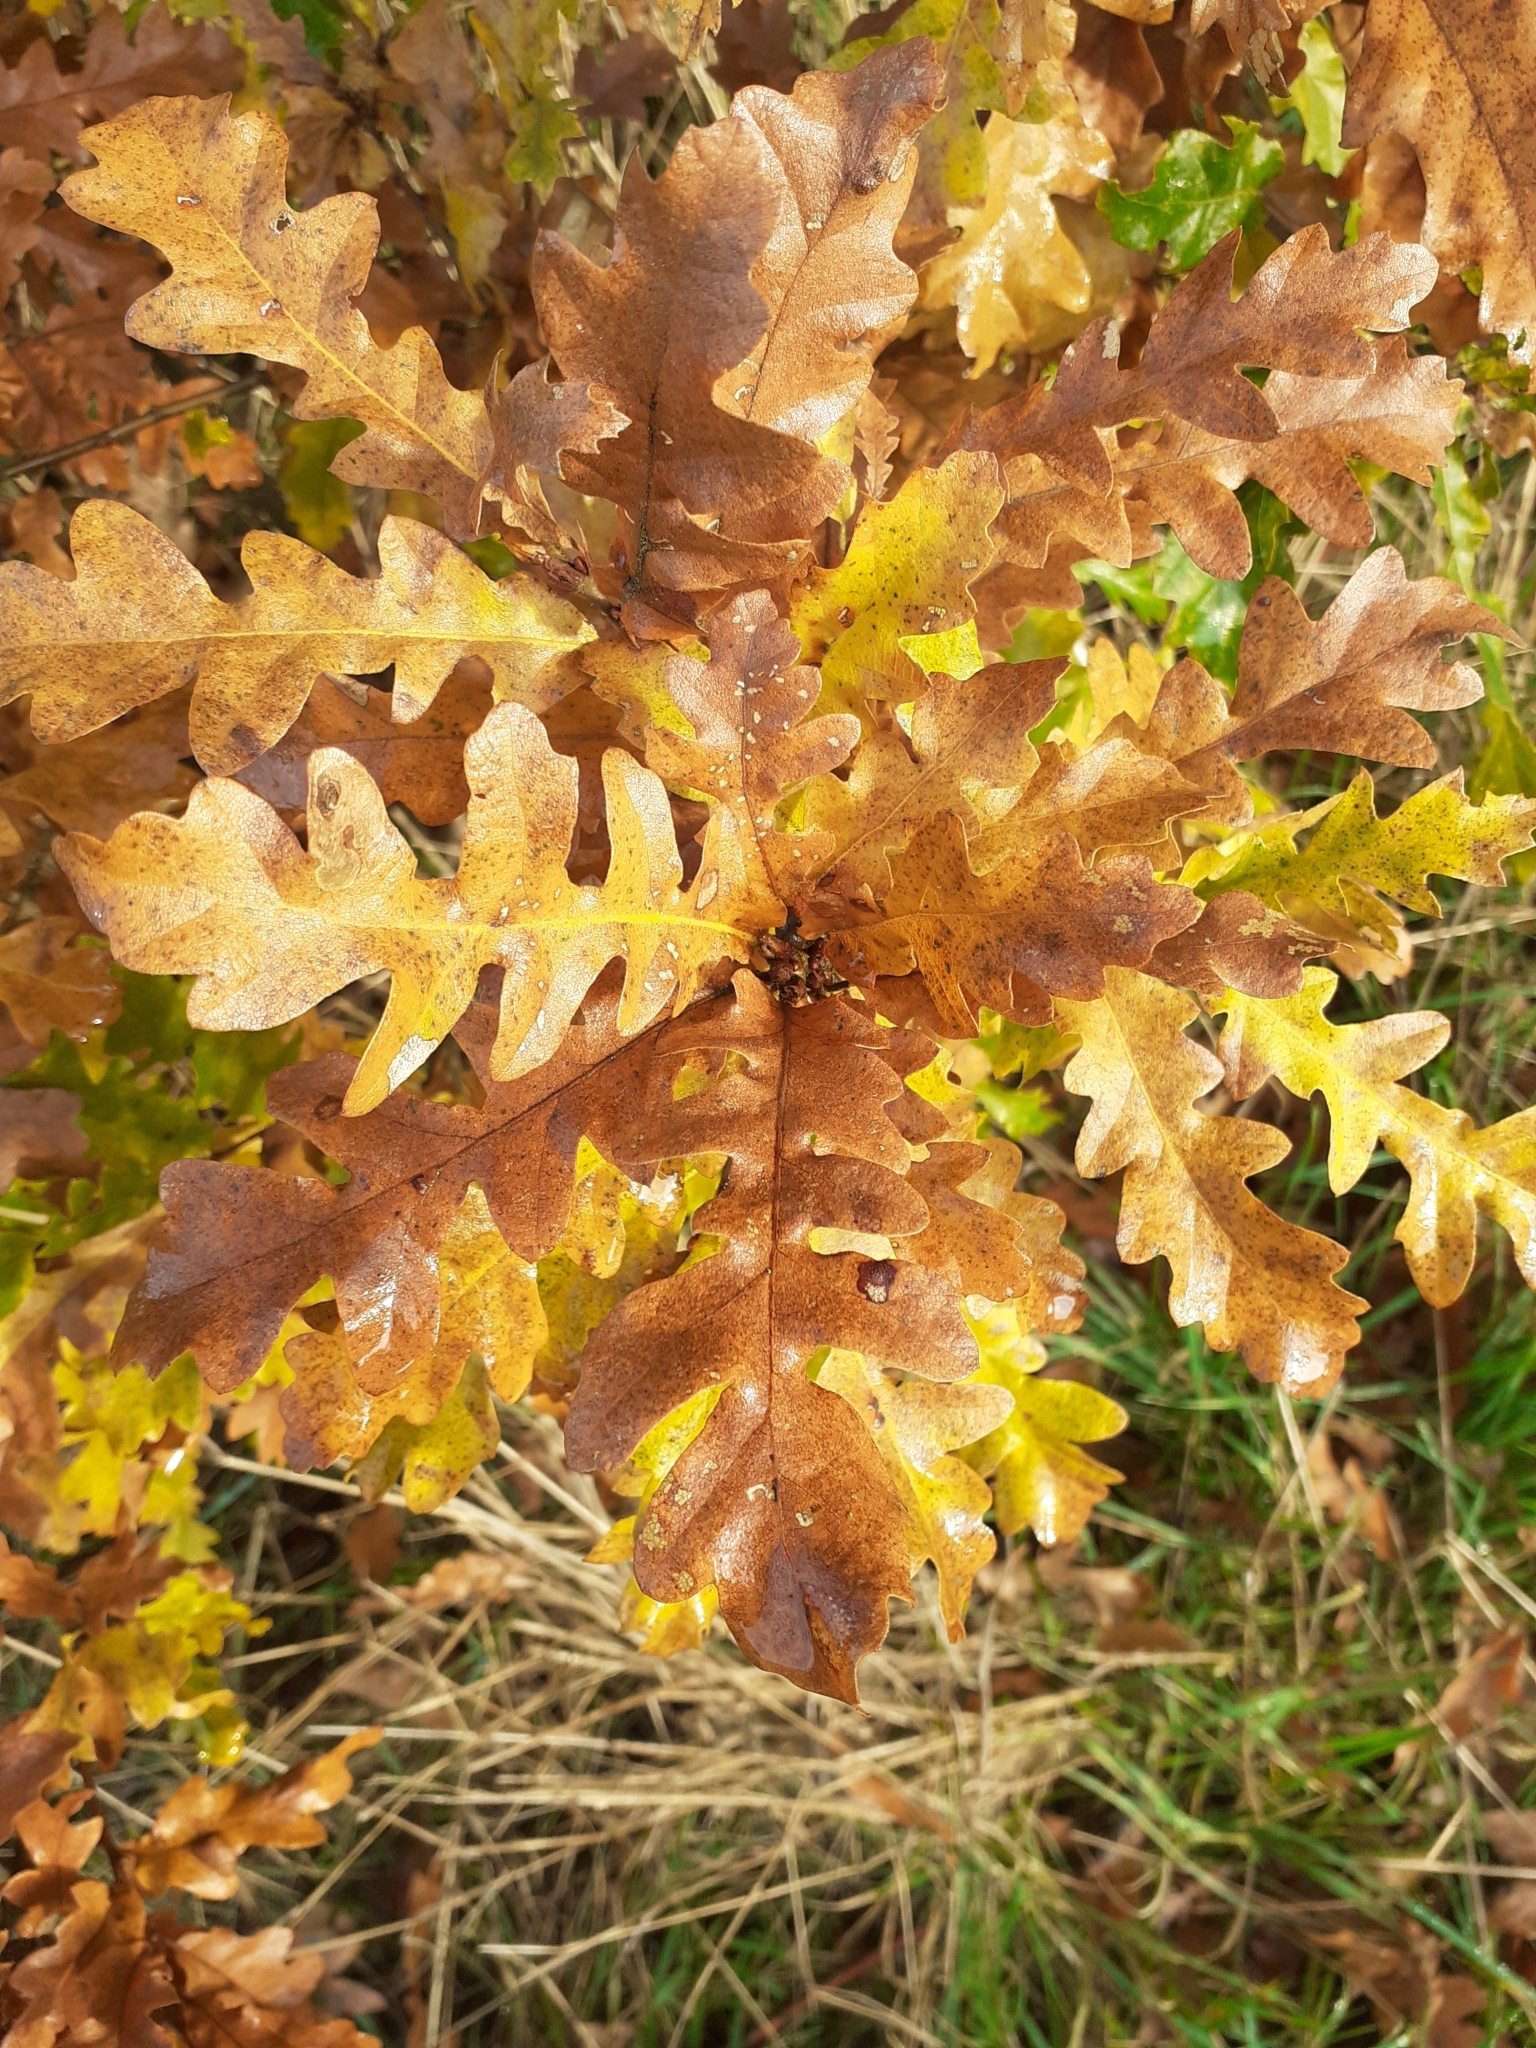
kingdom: Plantae
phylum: Tracheophyta
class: Magnoliopsida
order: Fagales
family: Fagaceae
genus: Quercus
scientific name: Quercus cerris
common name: Turkey oak
